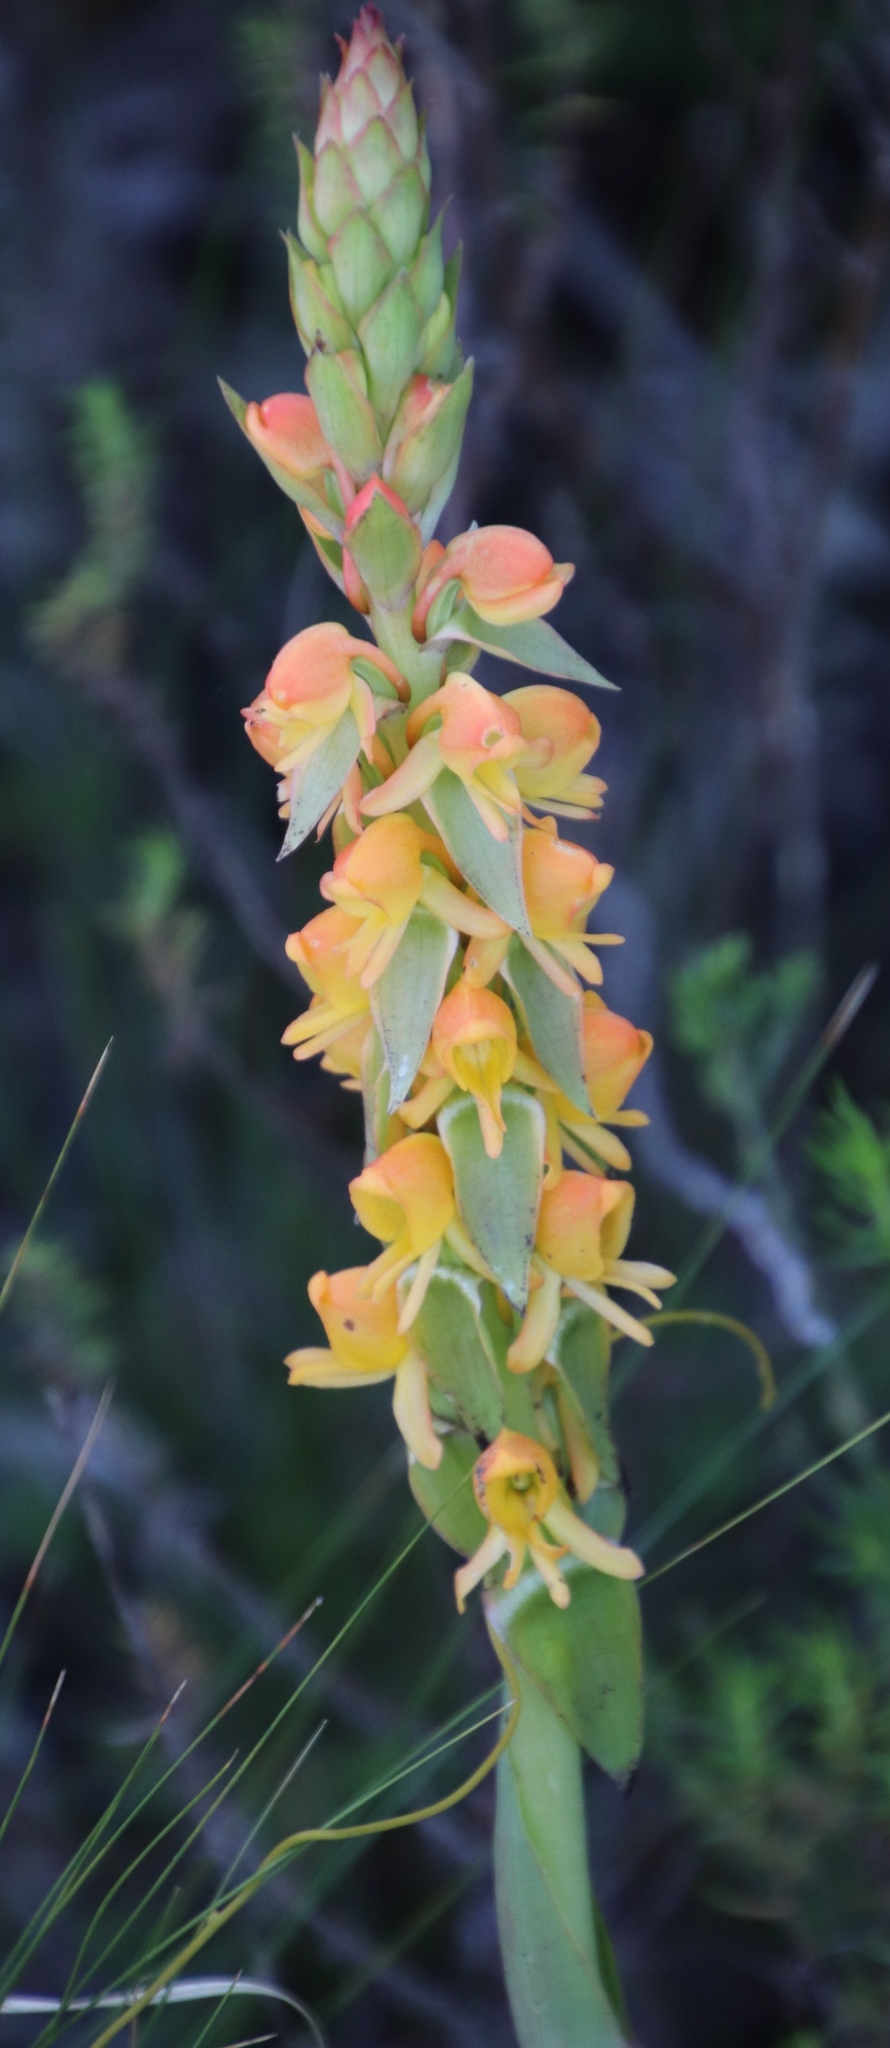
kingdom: Plantae
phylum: Tracheophyta
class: Liliopsida
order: Asparagales
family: Orchidaceae
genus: Satyrium
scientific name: Satyrium coriifolium
